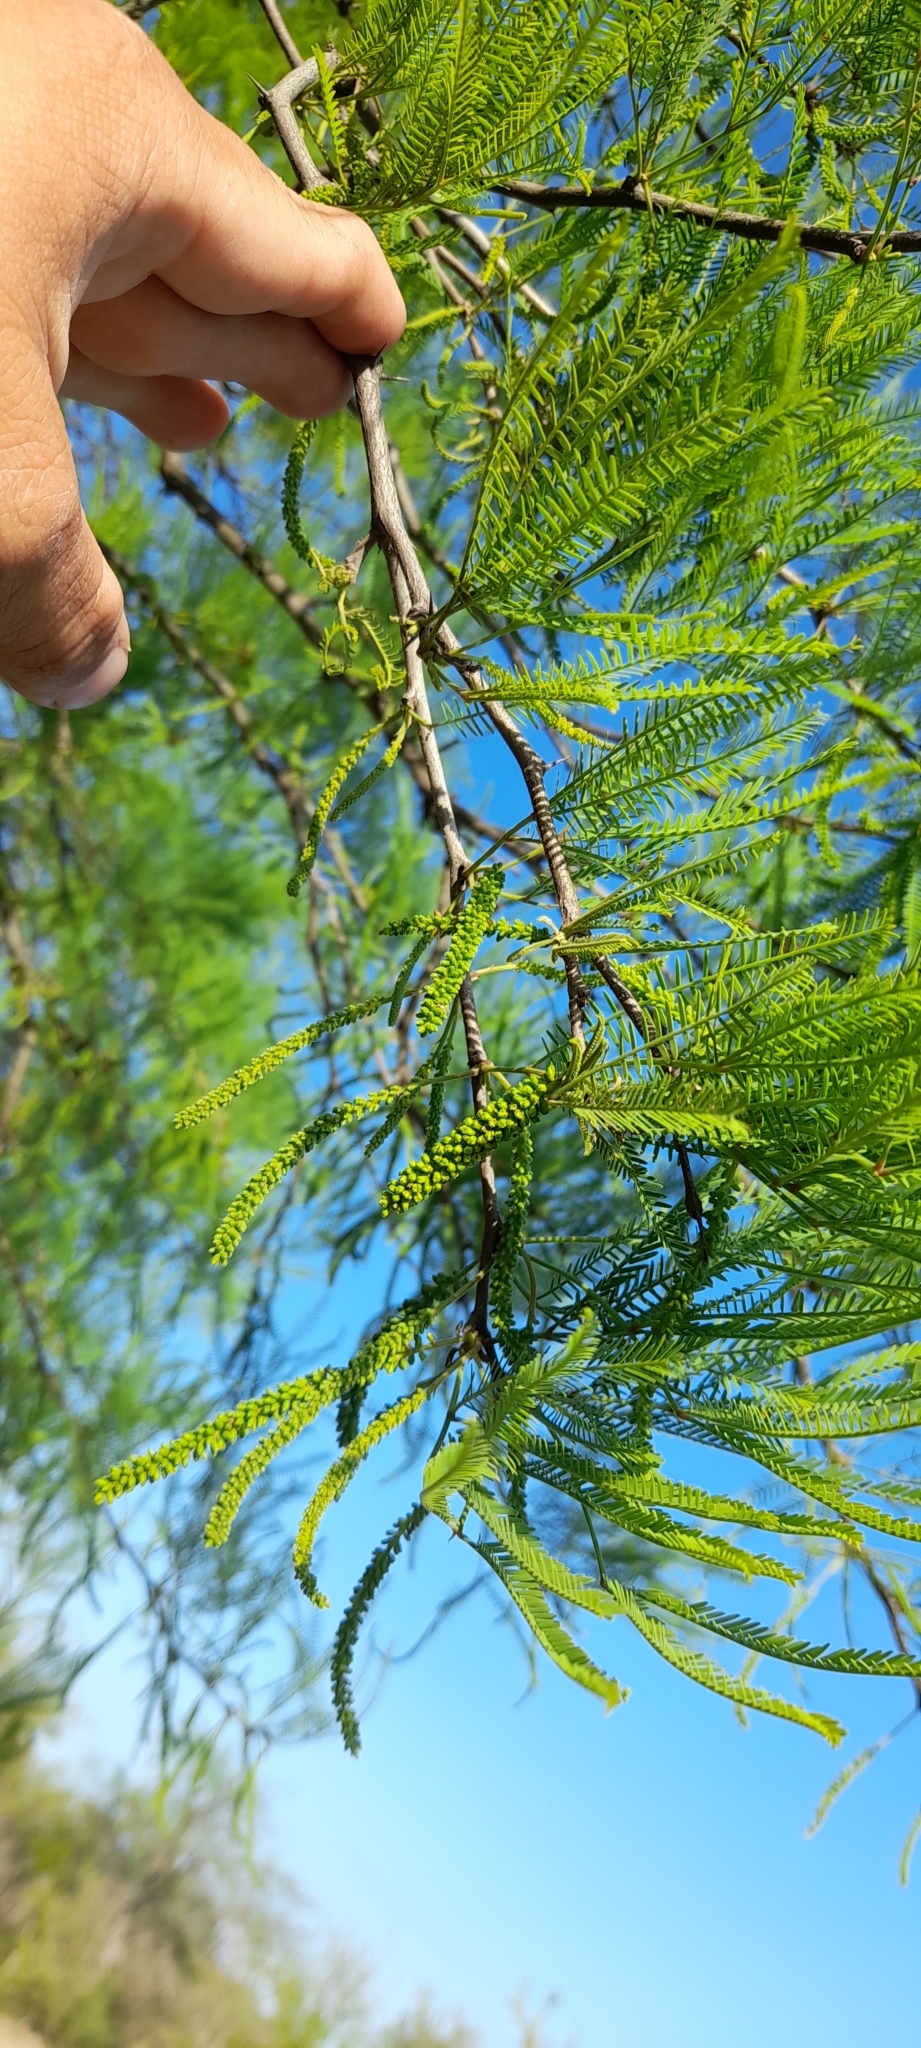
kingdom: Plantae
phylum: Tracheophyta
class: Magnoliopsida
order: Fabales
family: Fabaceae
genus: Prosopis
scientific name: Prosopis alba
